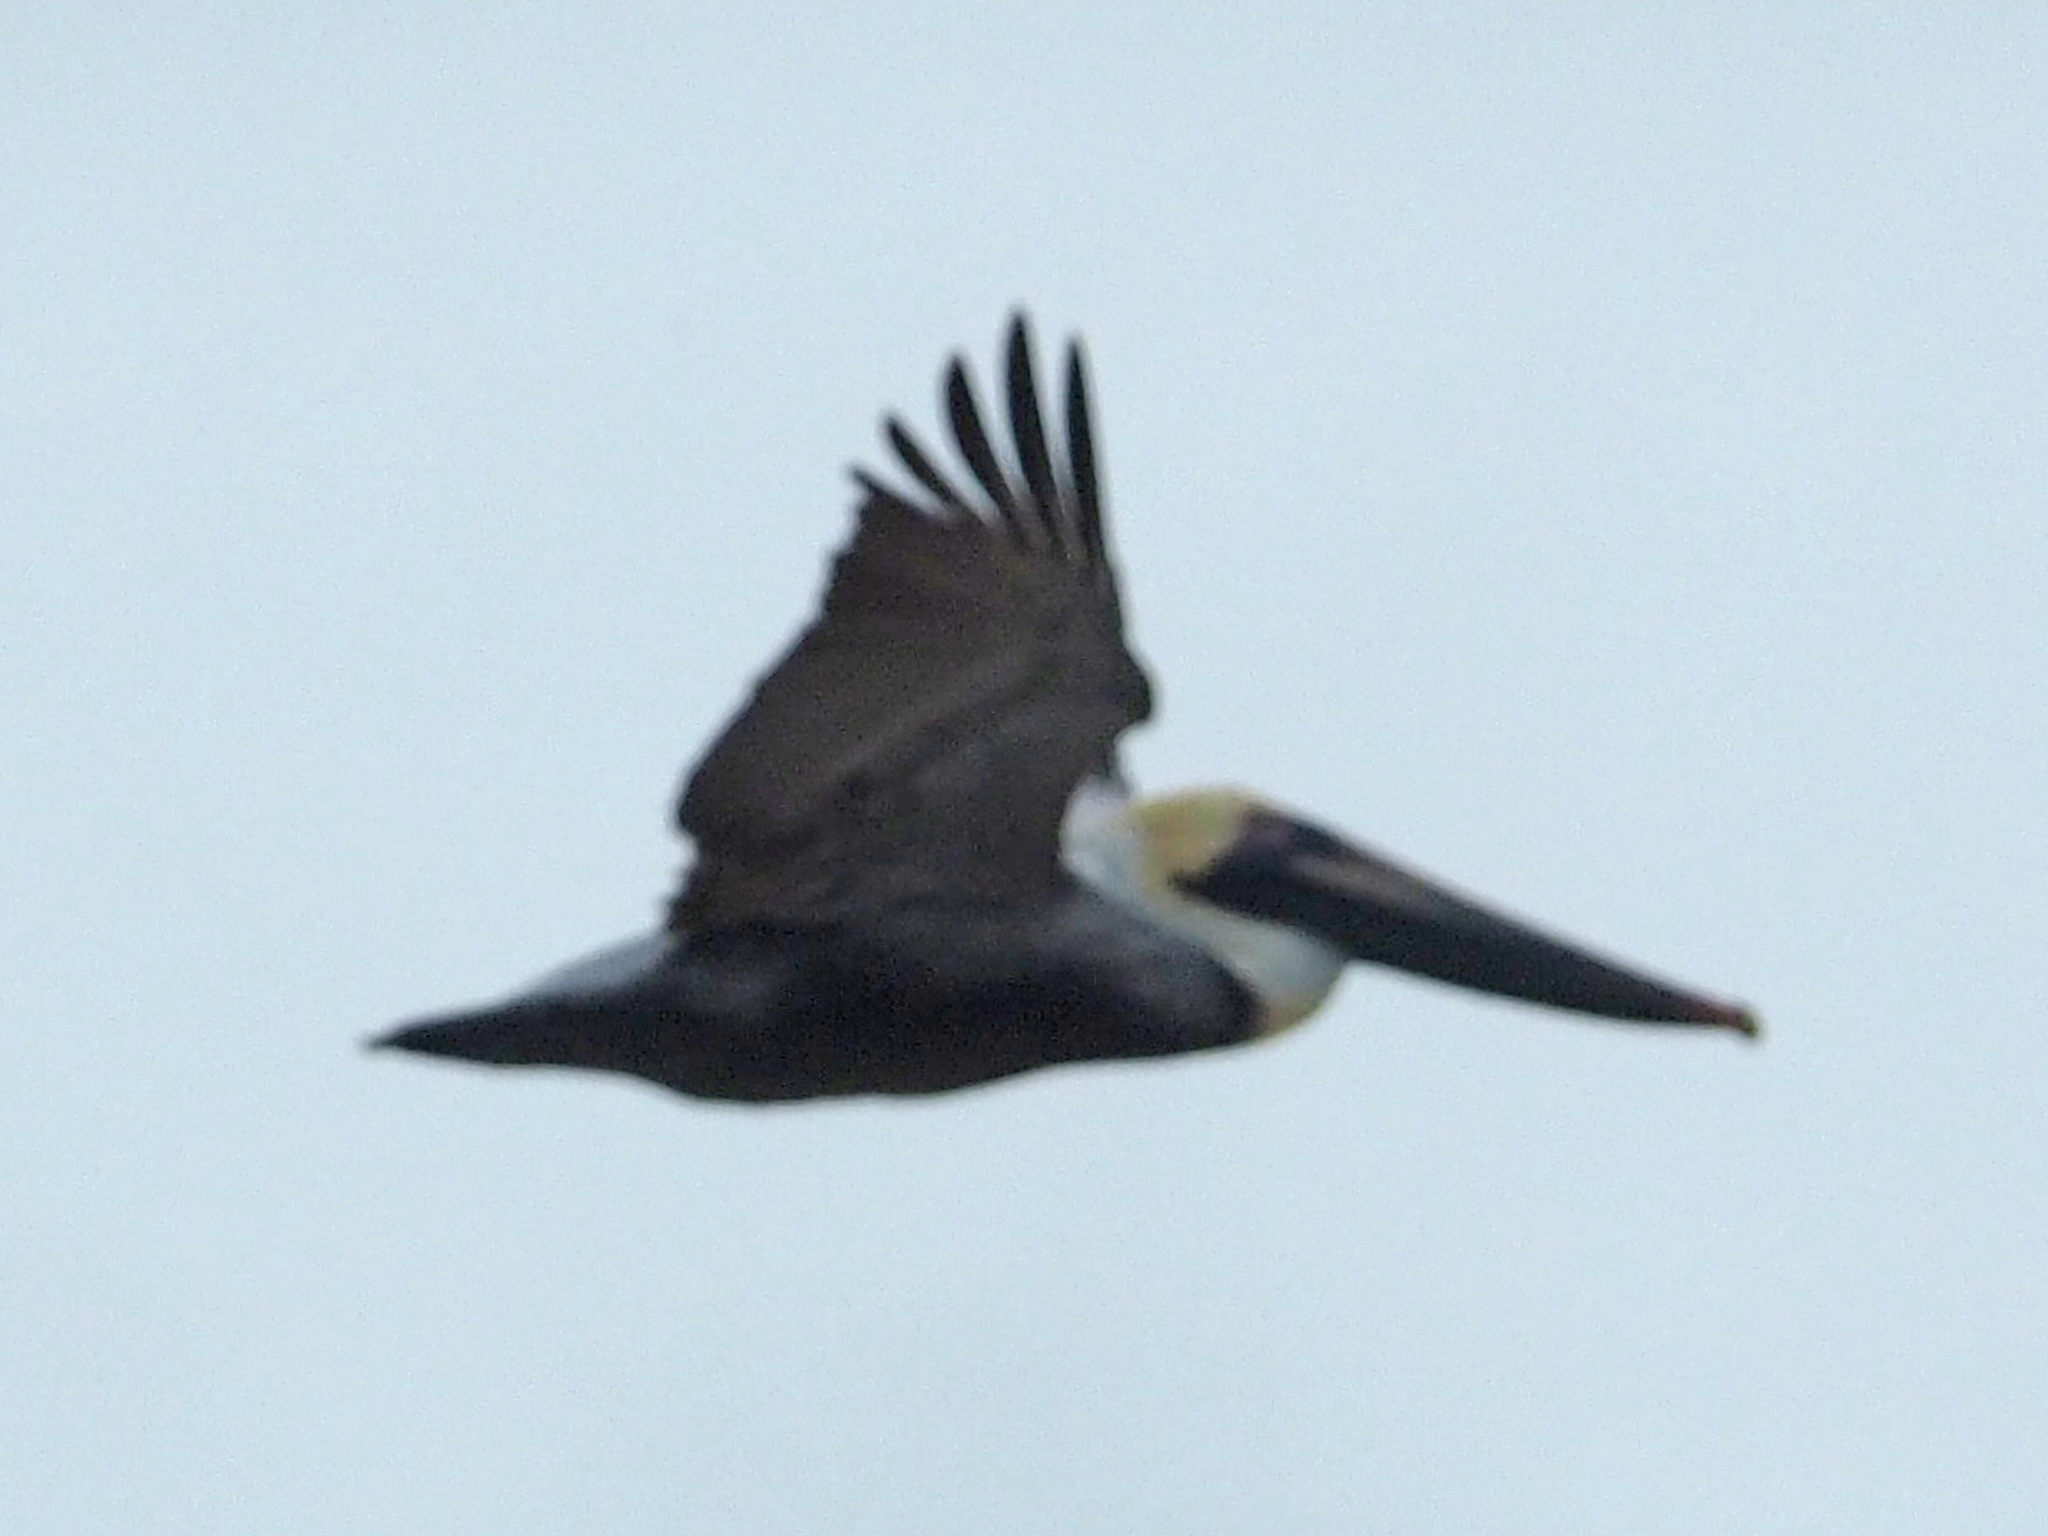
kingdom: Animalia
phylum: Chordata
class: Aves
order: Pelecaniformes
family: Pelecanidae
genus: Pelecanus
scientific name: Pelecanus occidentalis
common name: Brown pelican
